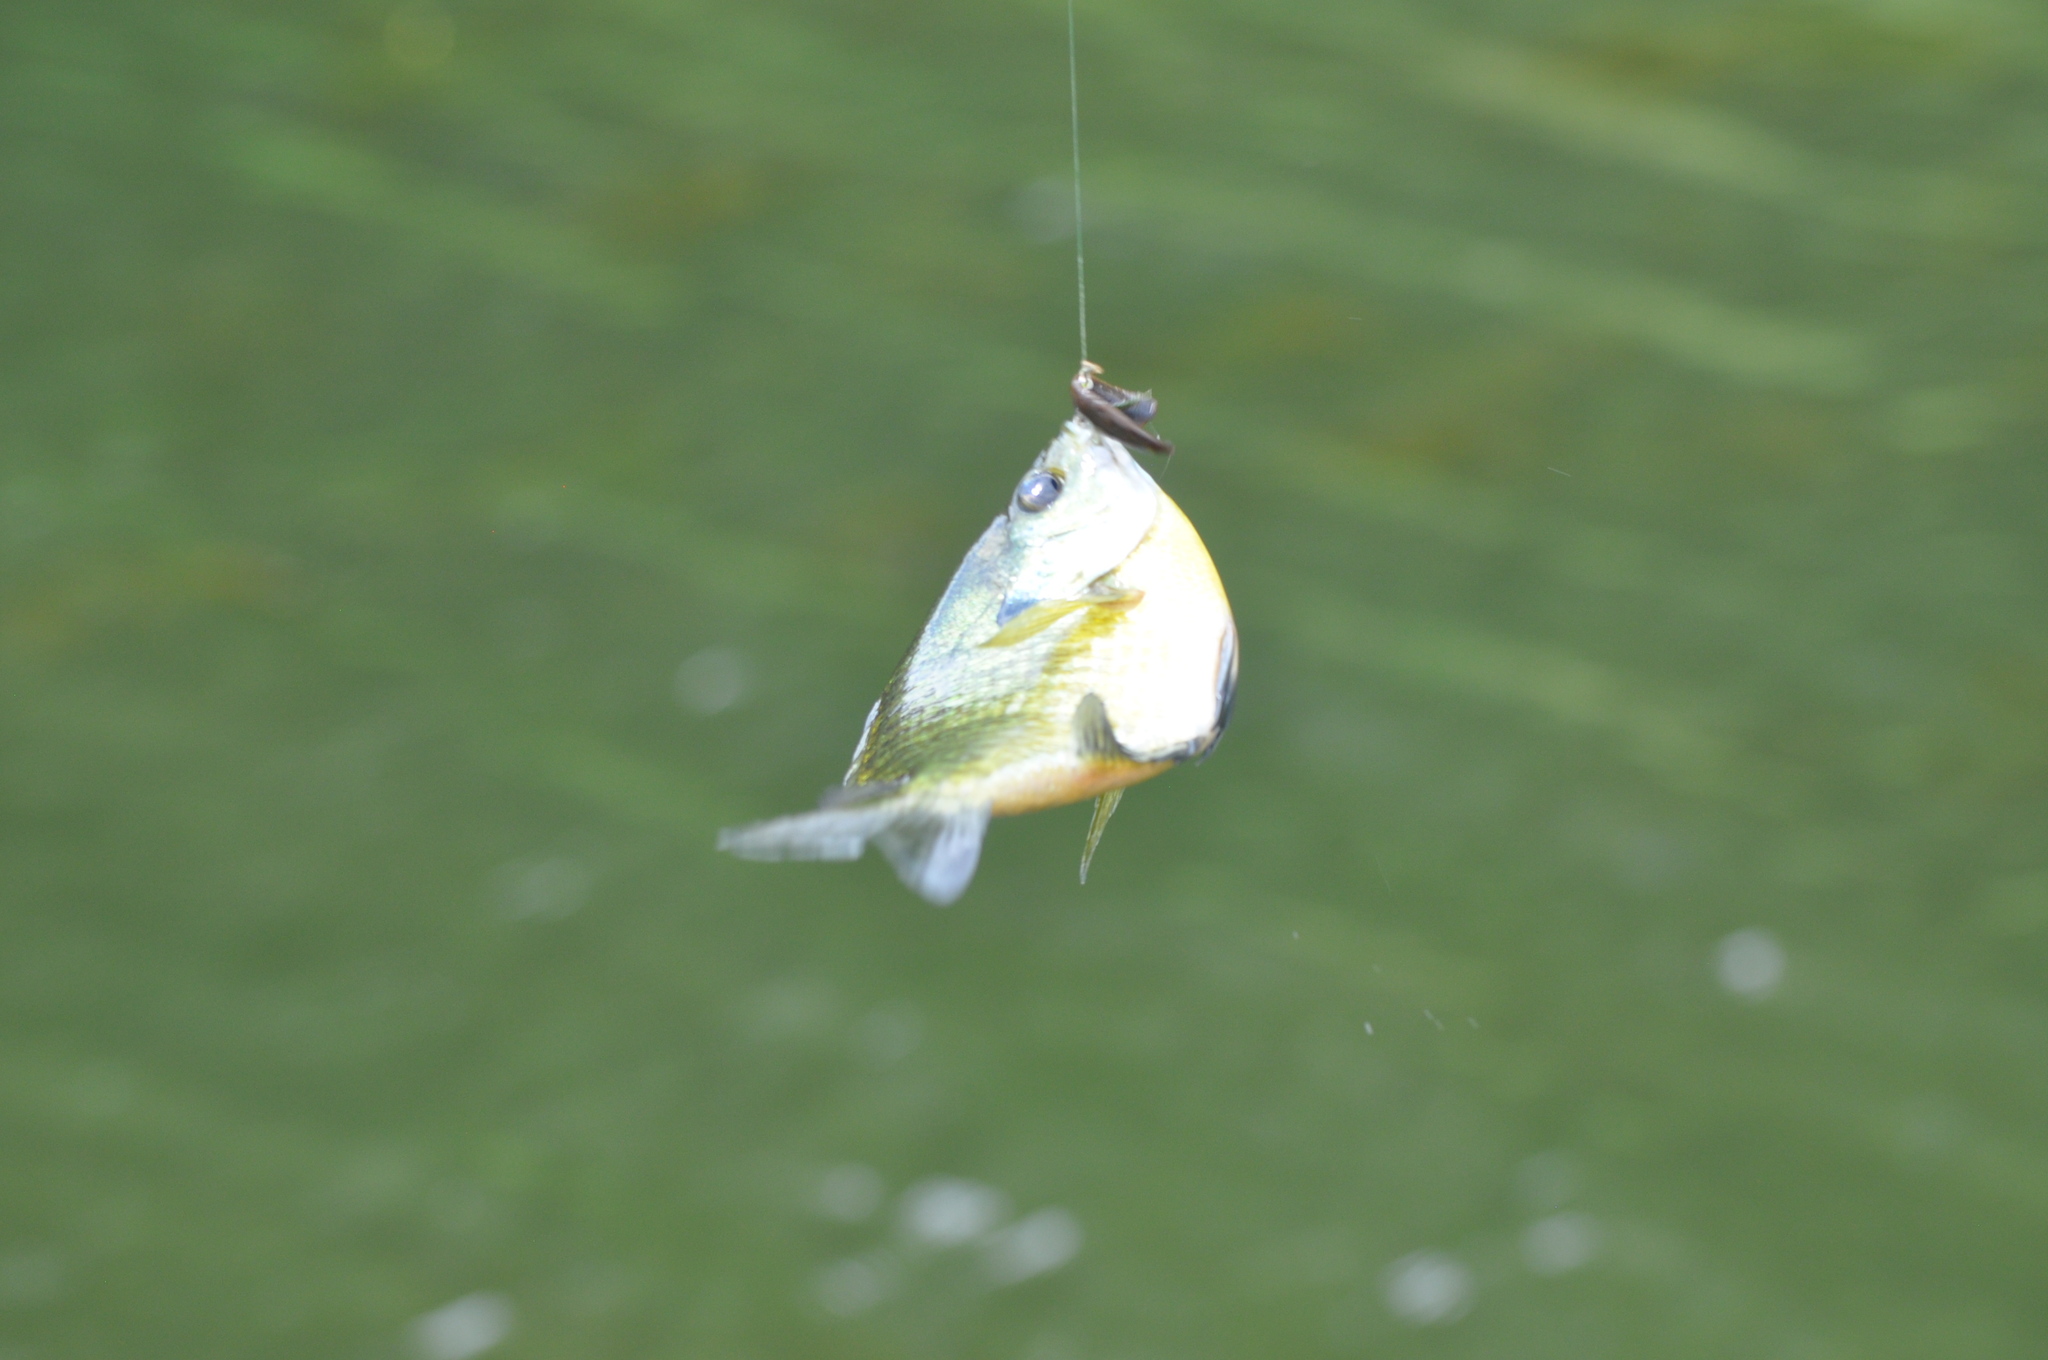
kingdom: Animalia
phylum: Chordata
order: Perciformes
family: Centrarchidae
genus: Lepomis
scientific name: Lepomis macrochirus
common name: Bluegill
